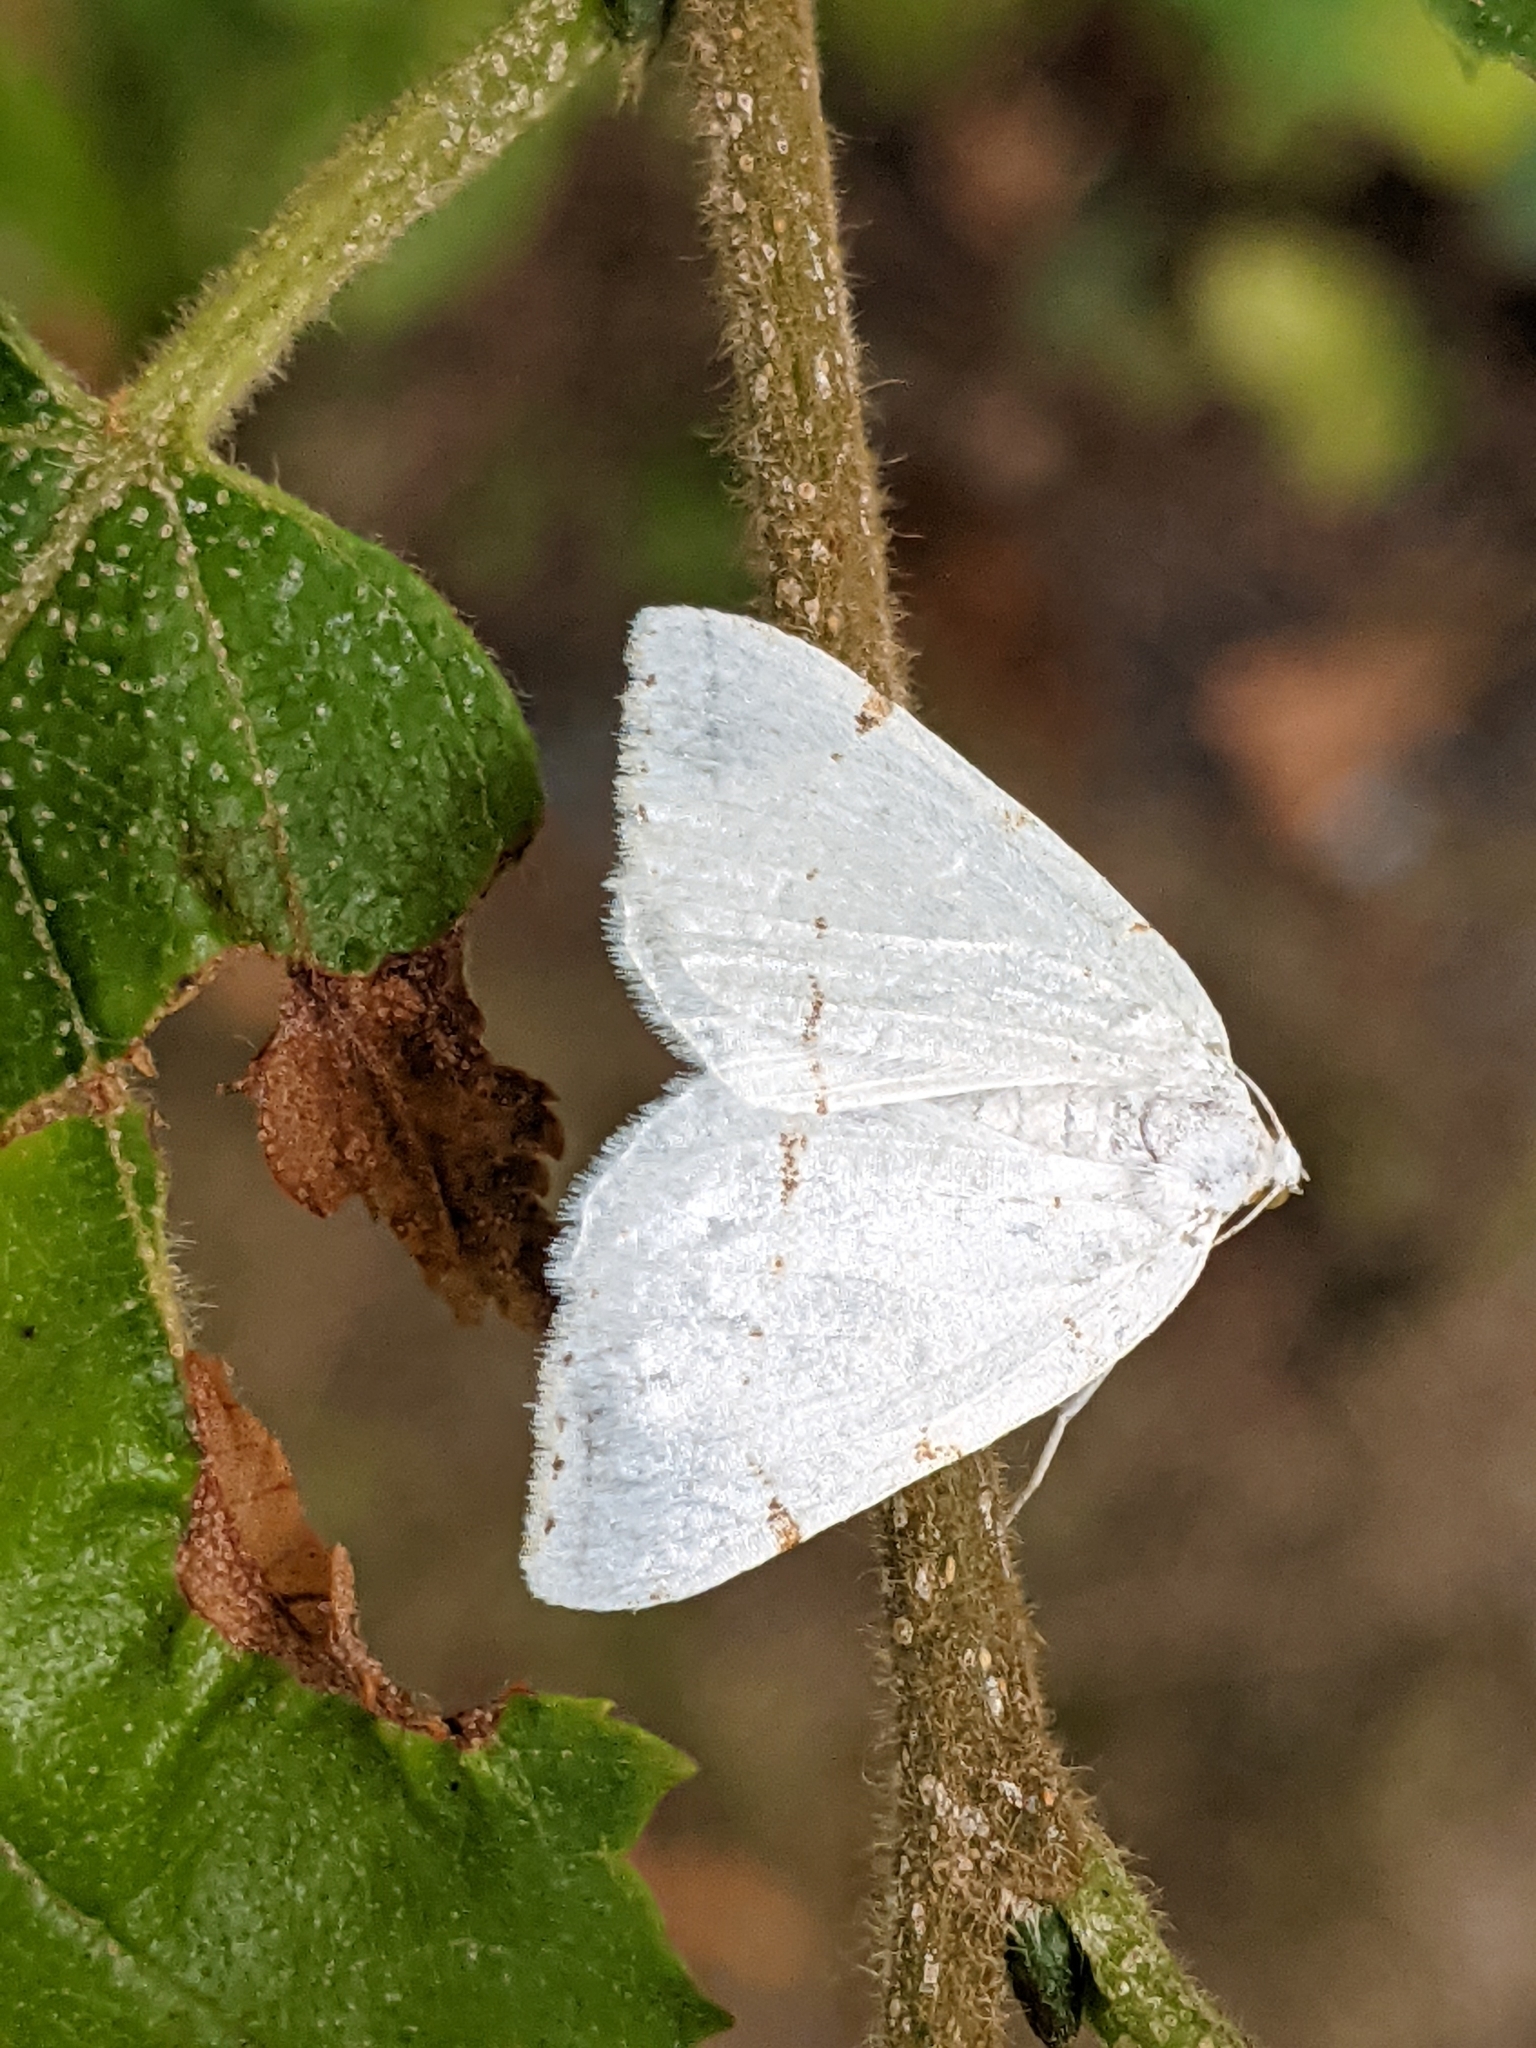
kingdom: Animalia
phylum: Arthropoda
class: Insecta
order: Lepidoptera
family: Geometridae
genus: Macaria
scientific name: Macaria pustularia
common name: Lesser maple spanworm moth
